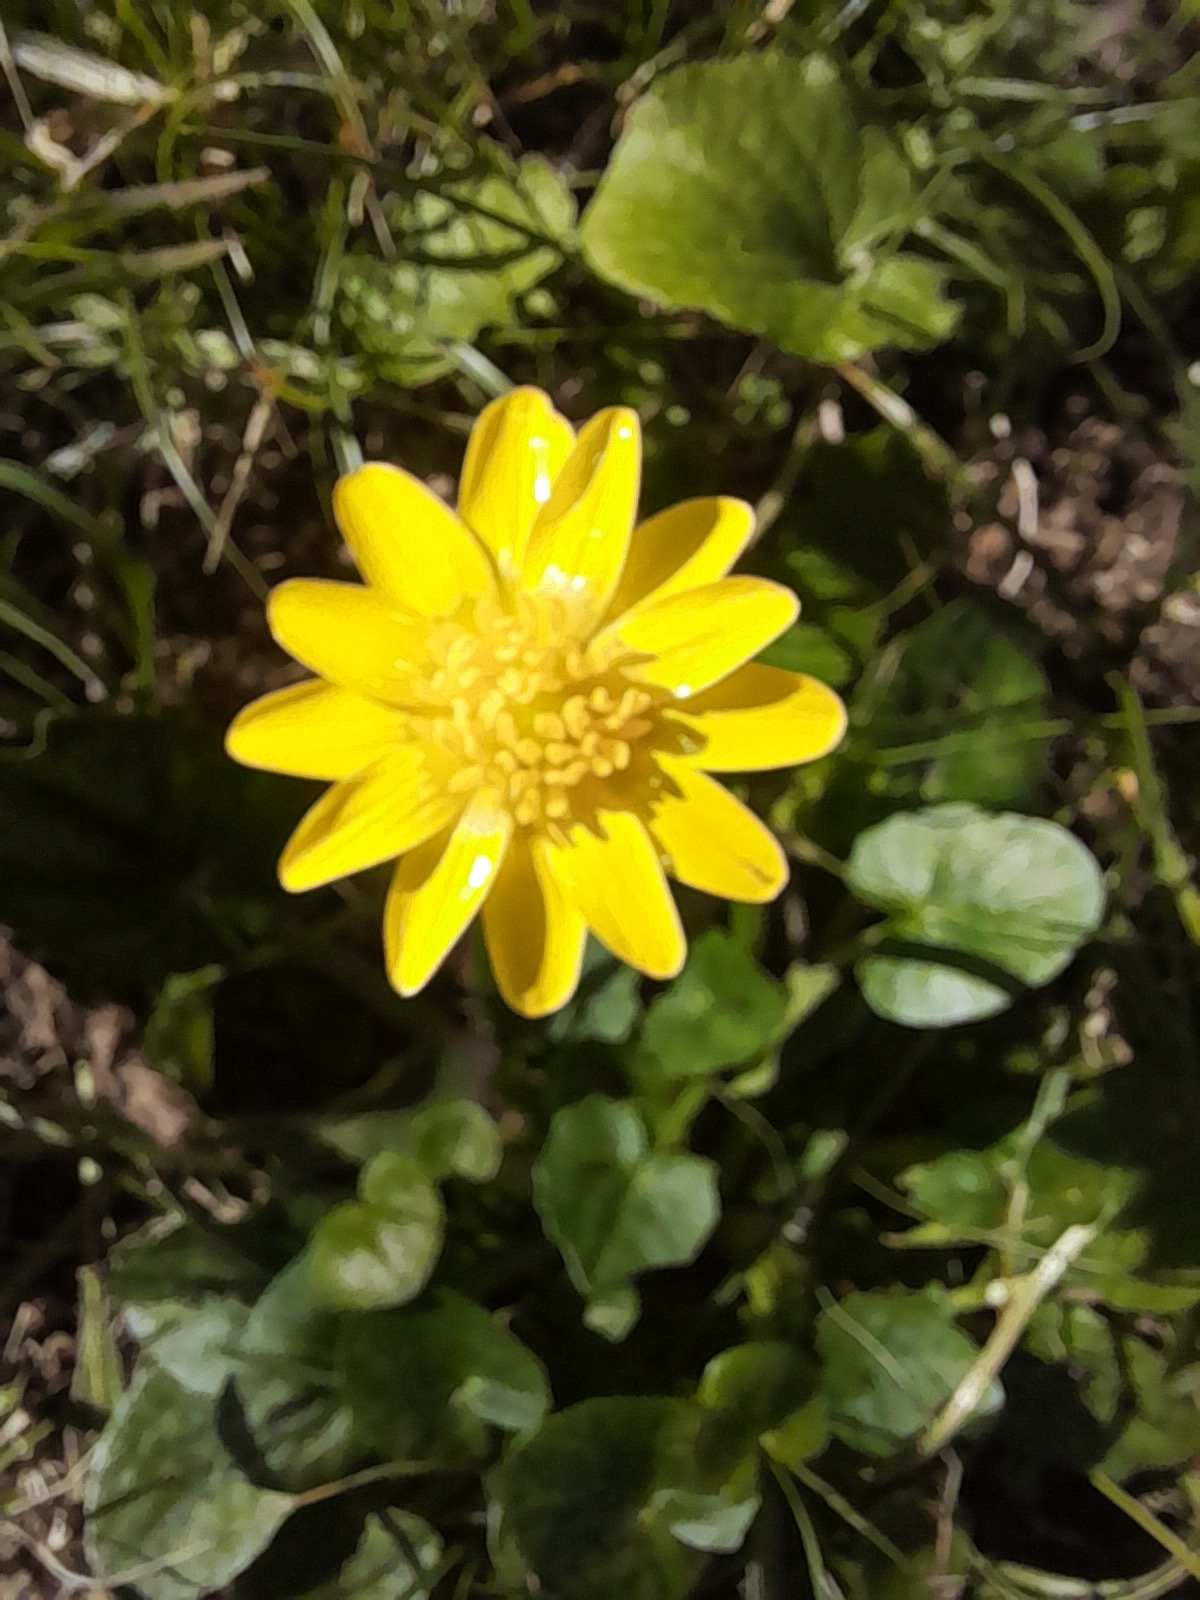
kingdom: Plantae
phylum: Tracheophyta
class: Magnoliopsida
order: Ranunculales
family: Ranunculaceae
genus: Ficaria
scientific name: Ficaria verna
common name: Lesser celandine
